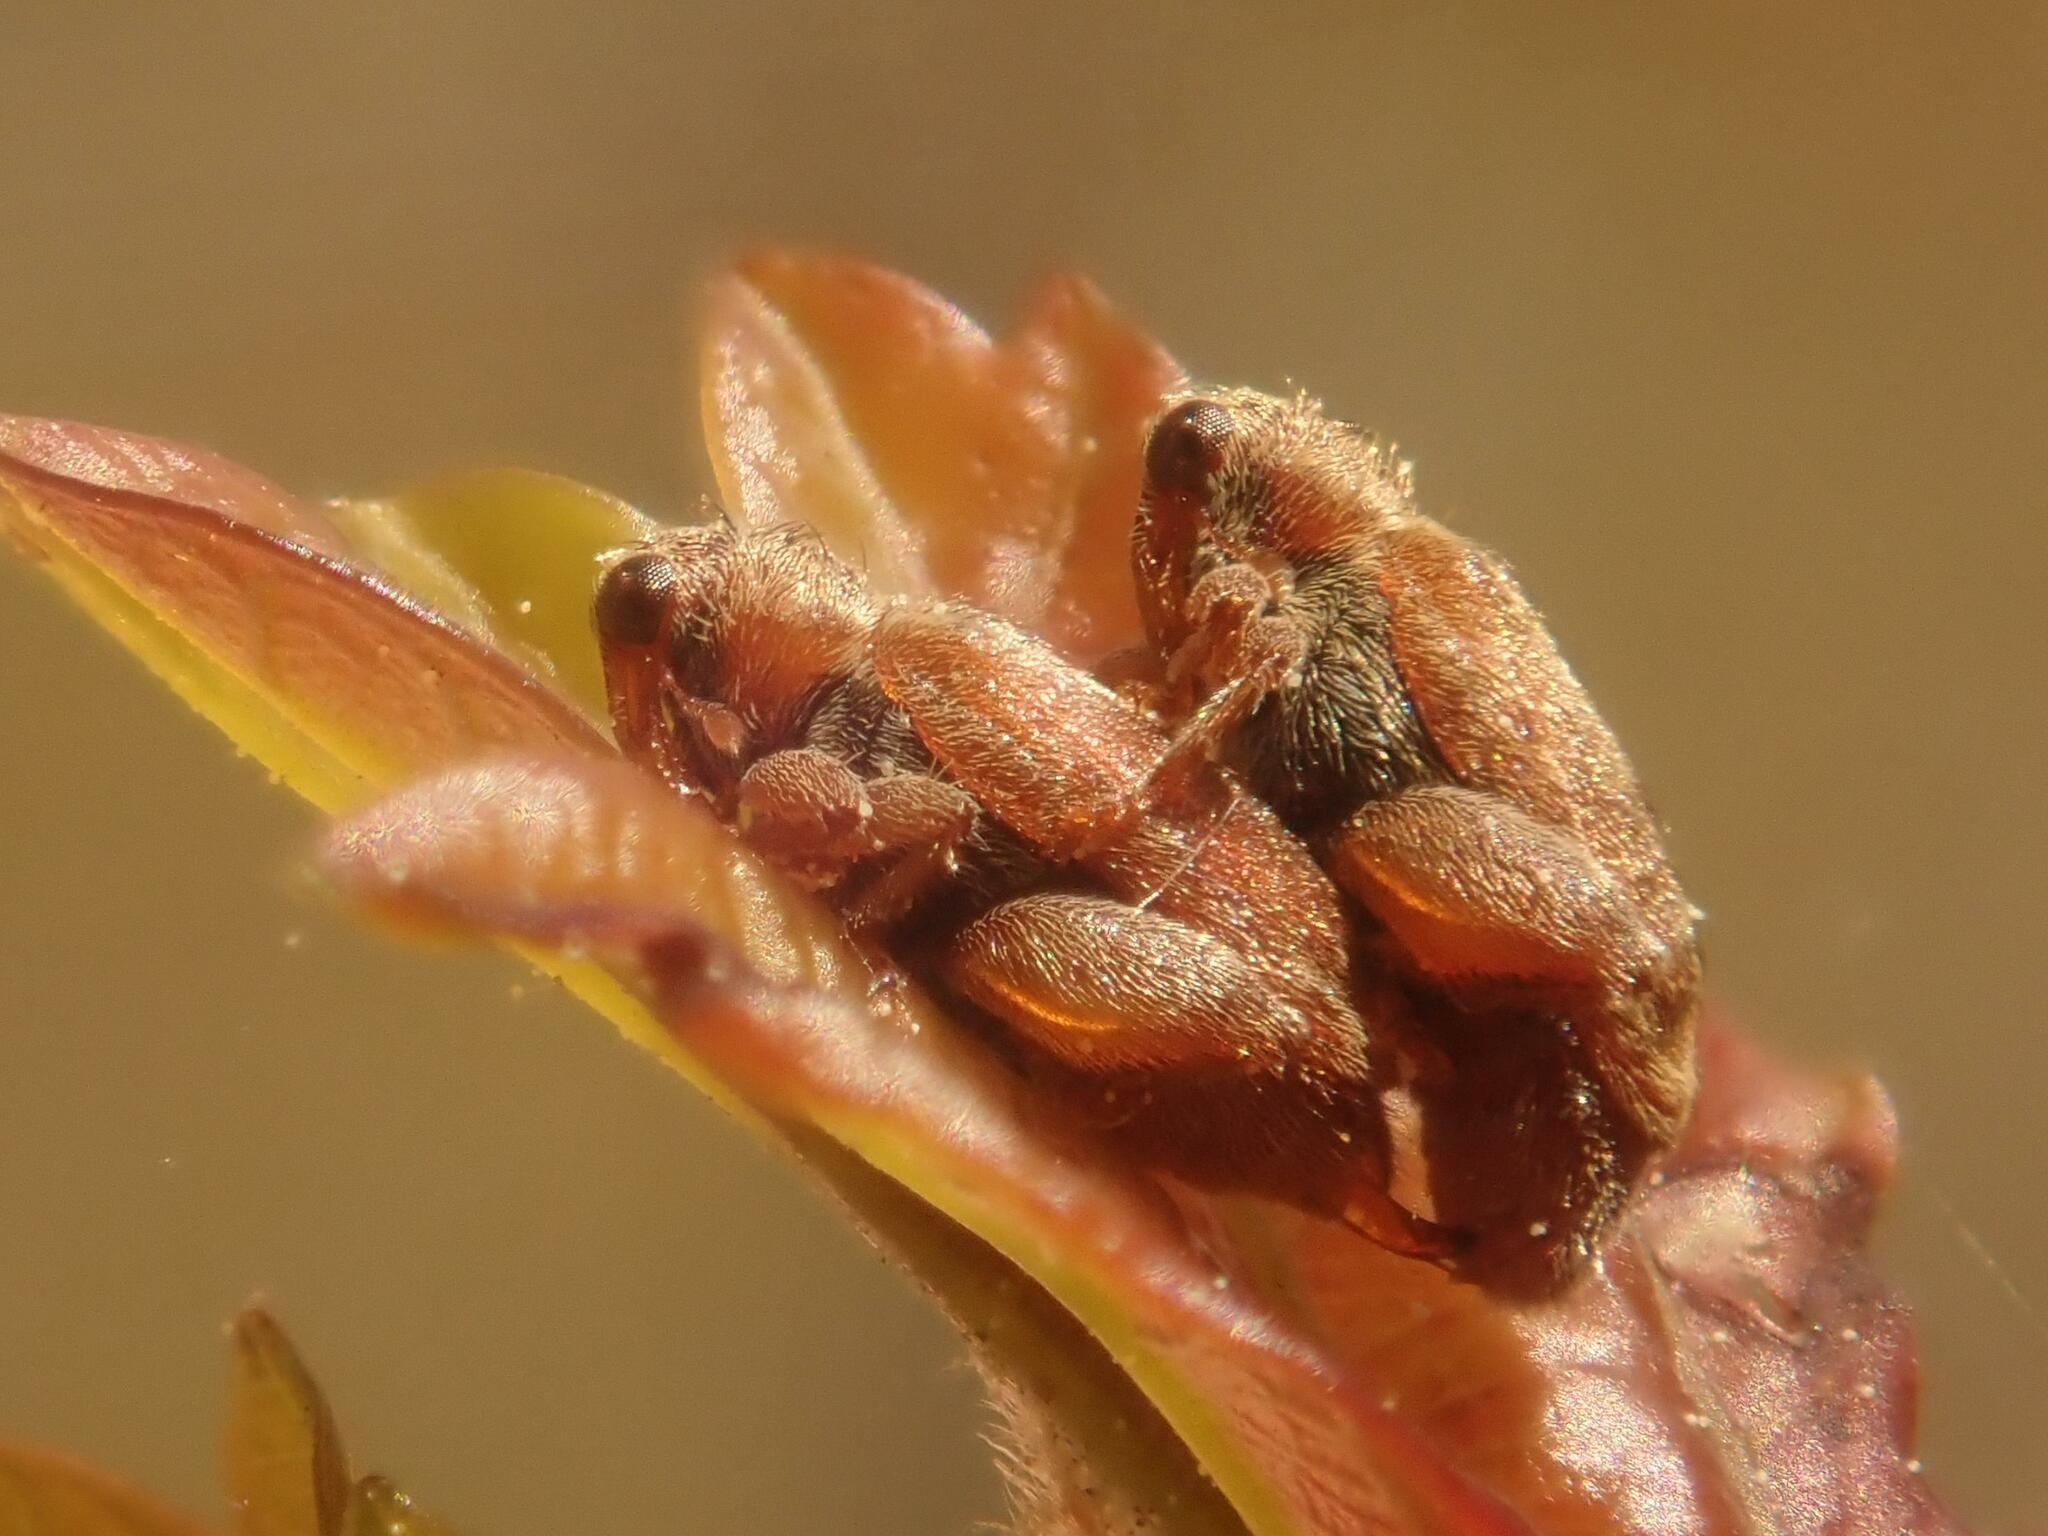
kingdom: Animalia
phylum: Arthropoda
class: Insecta
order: Coleoptera
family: Curculionidae
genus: Orchestes
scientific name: Orchestes quercus
